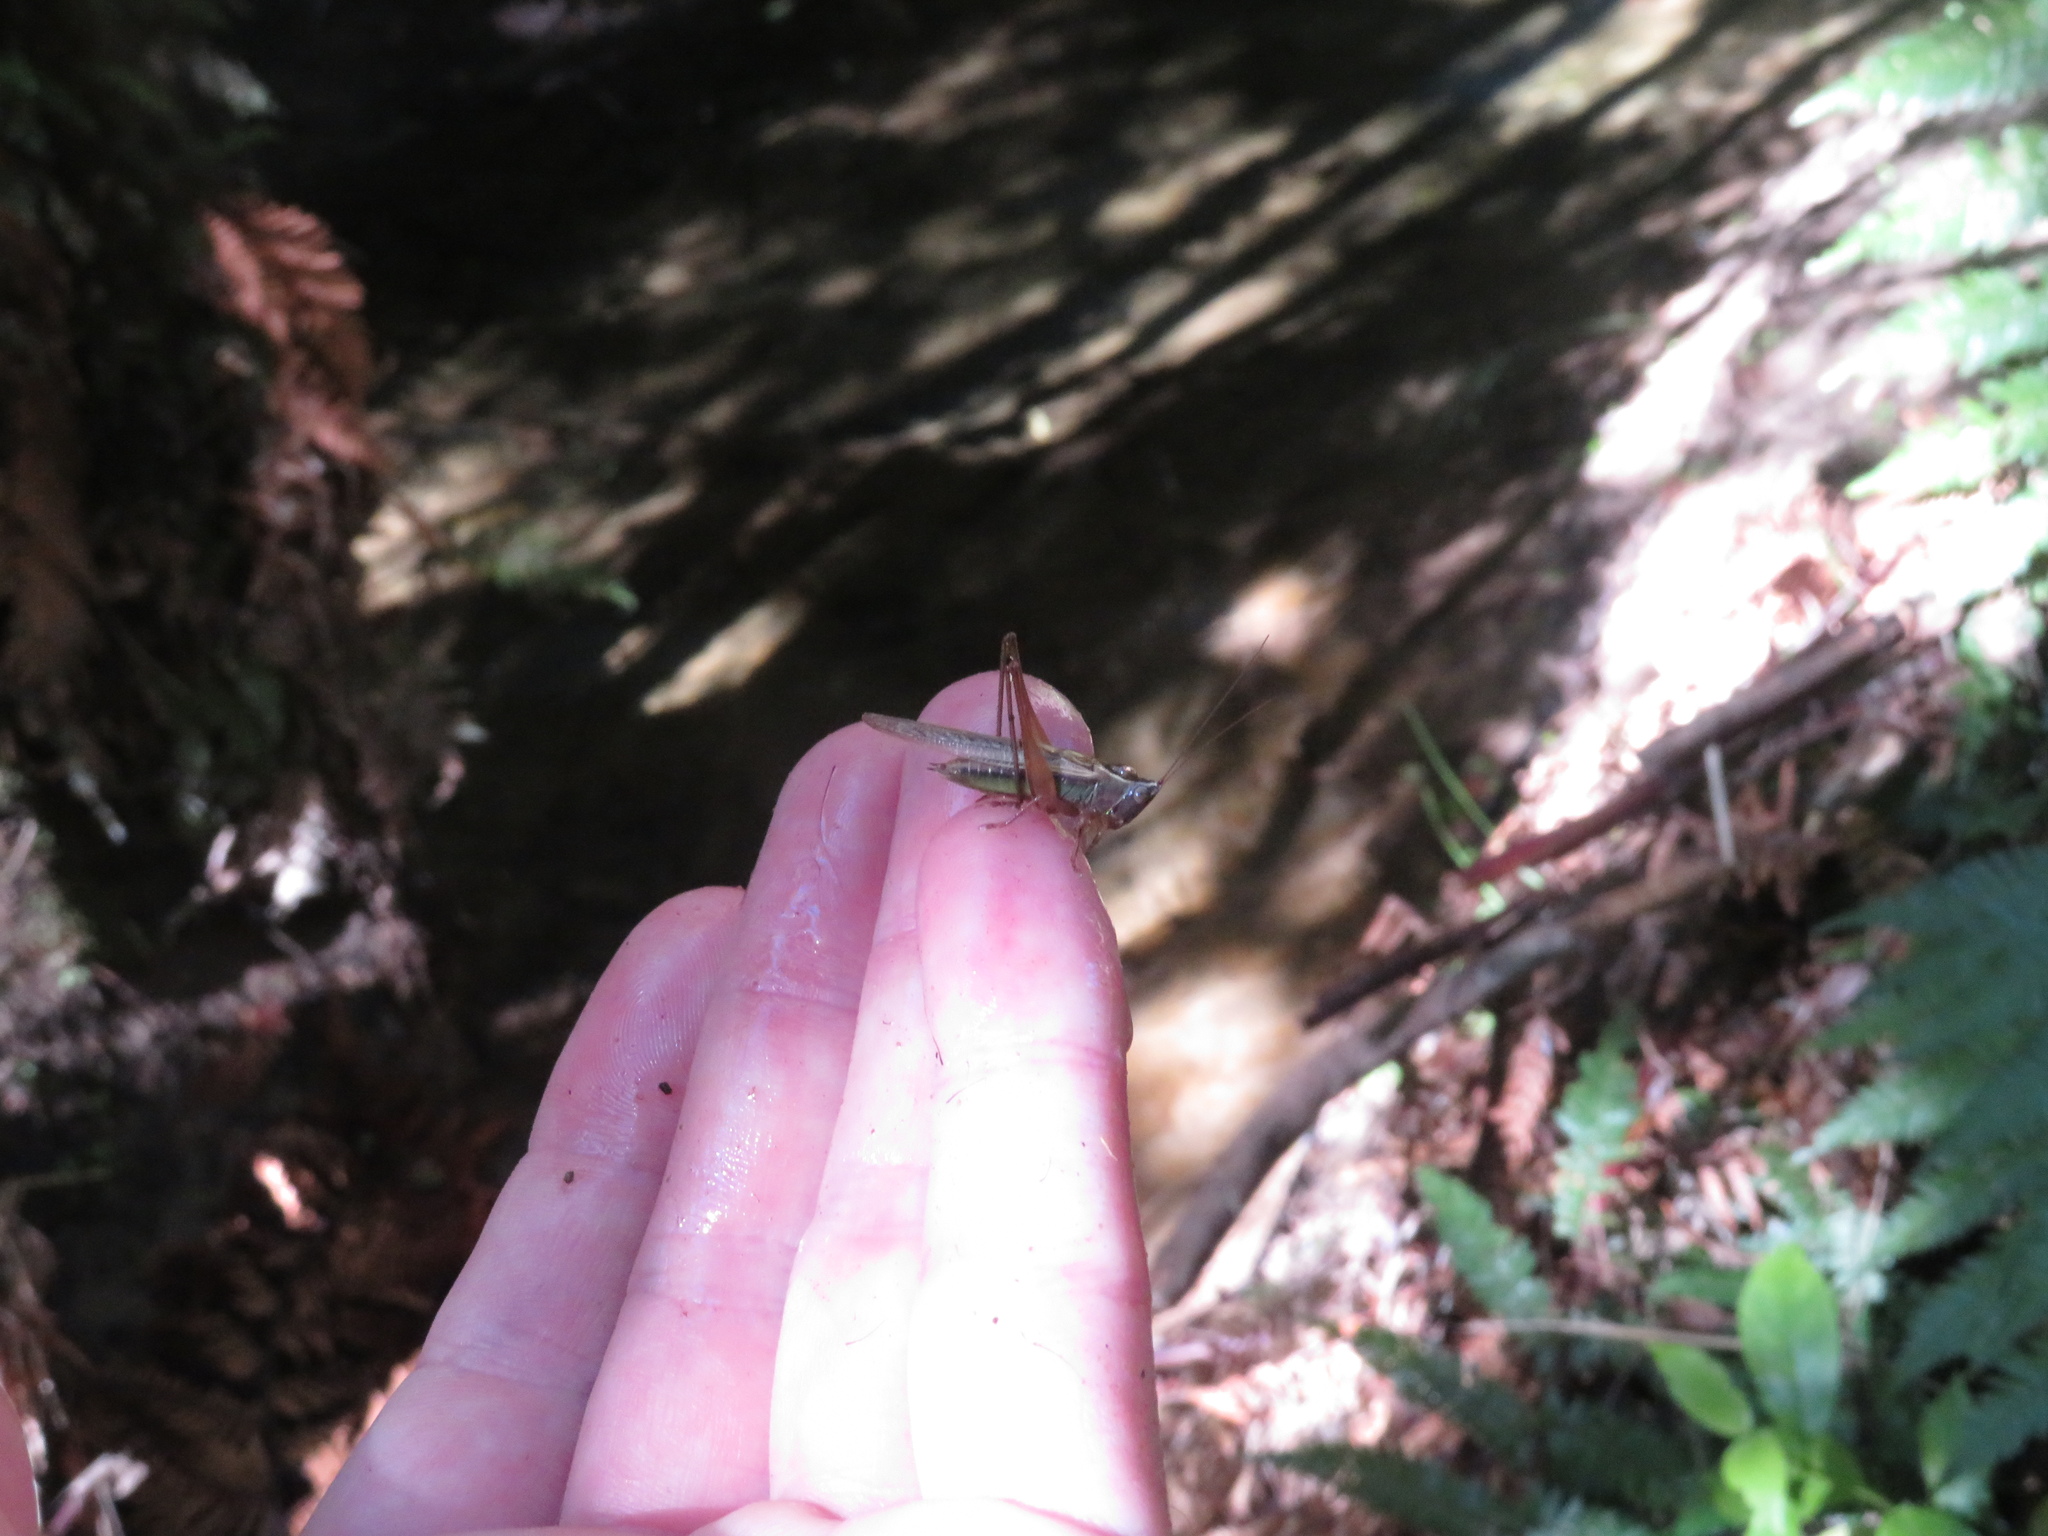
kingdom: Animalia
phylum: Arthropoda
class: Insecta
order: Orthoptera
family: Tettigoniidae
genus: Conocephalus
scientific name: Conocephalus albescens
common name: Whitish meadow katydid
